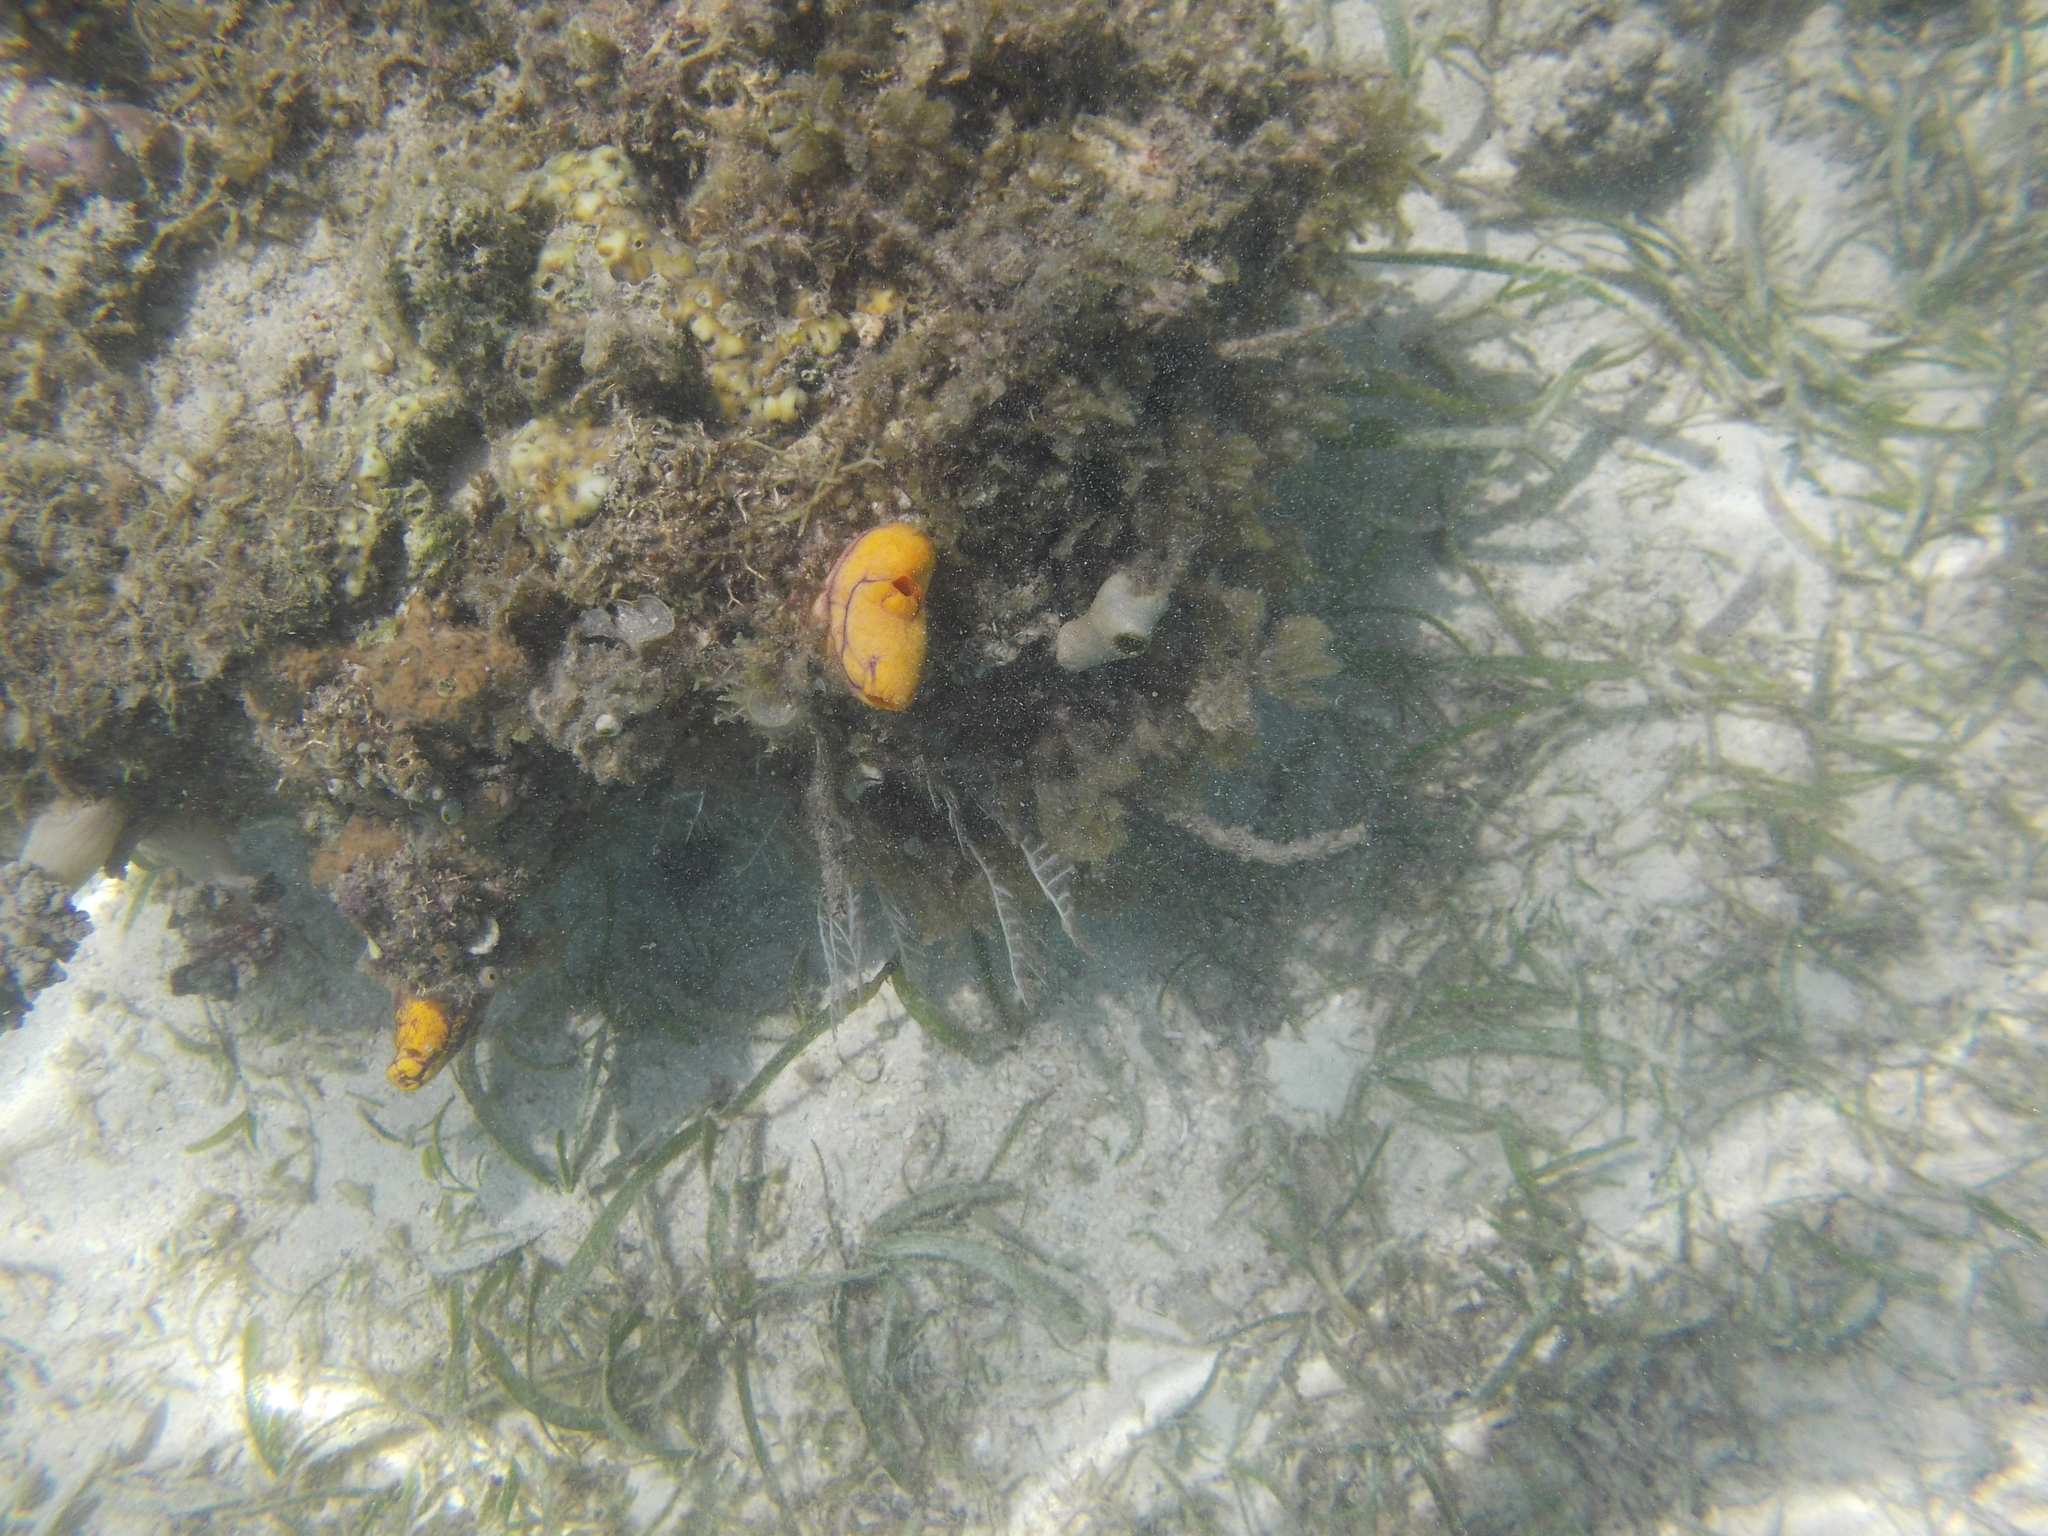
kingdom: Animalia
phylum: Chordata
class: Ascidiacea
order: Stolidobranchia
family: Styelidae
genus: Polycarpa
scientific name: Polycarpa aurata
